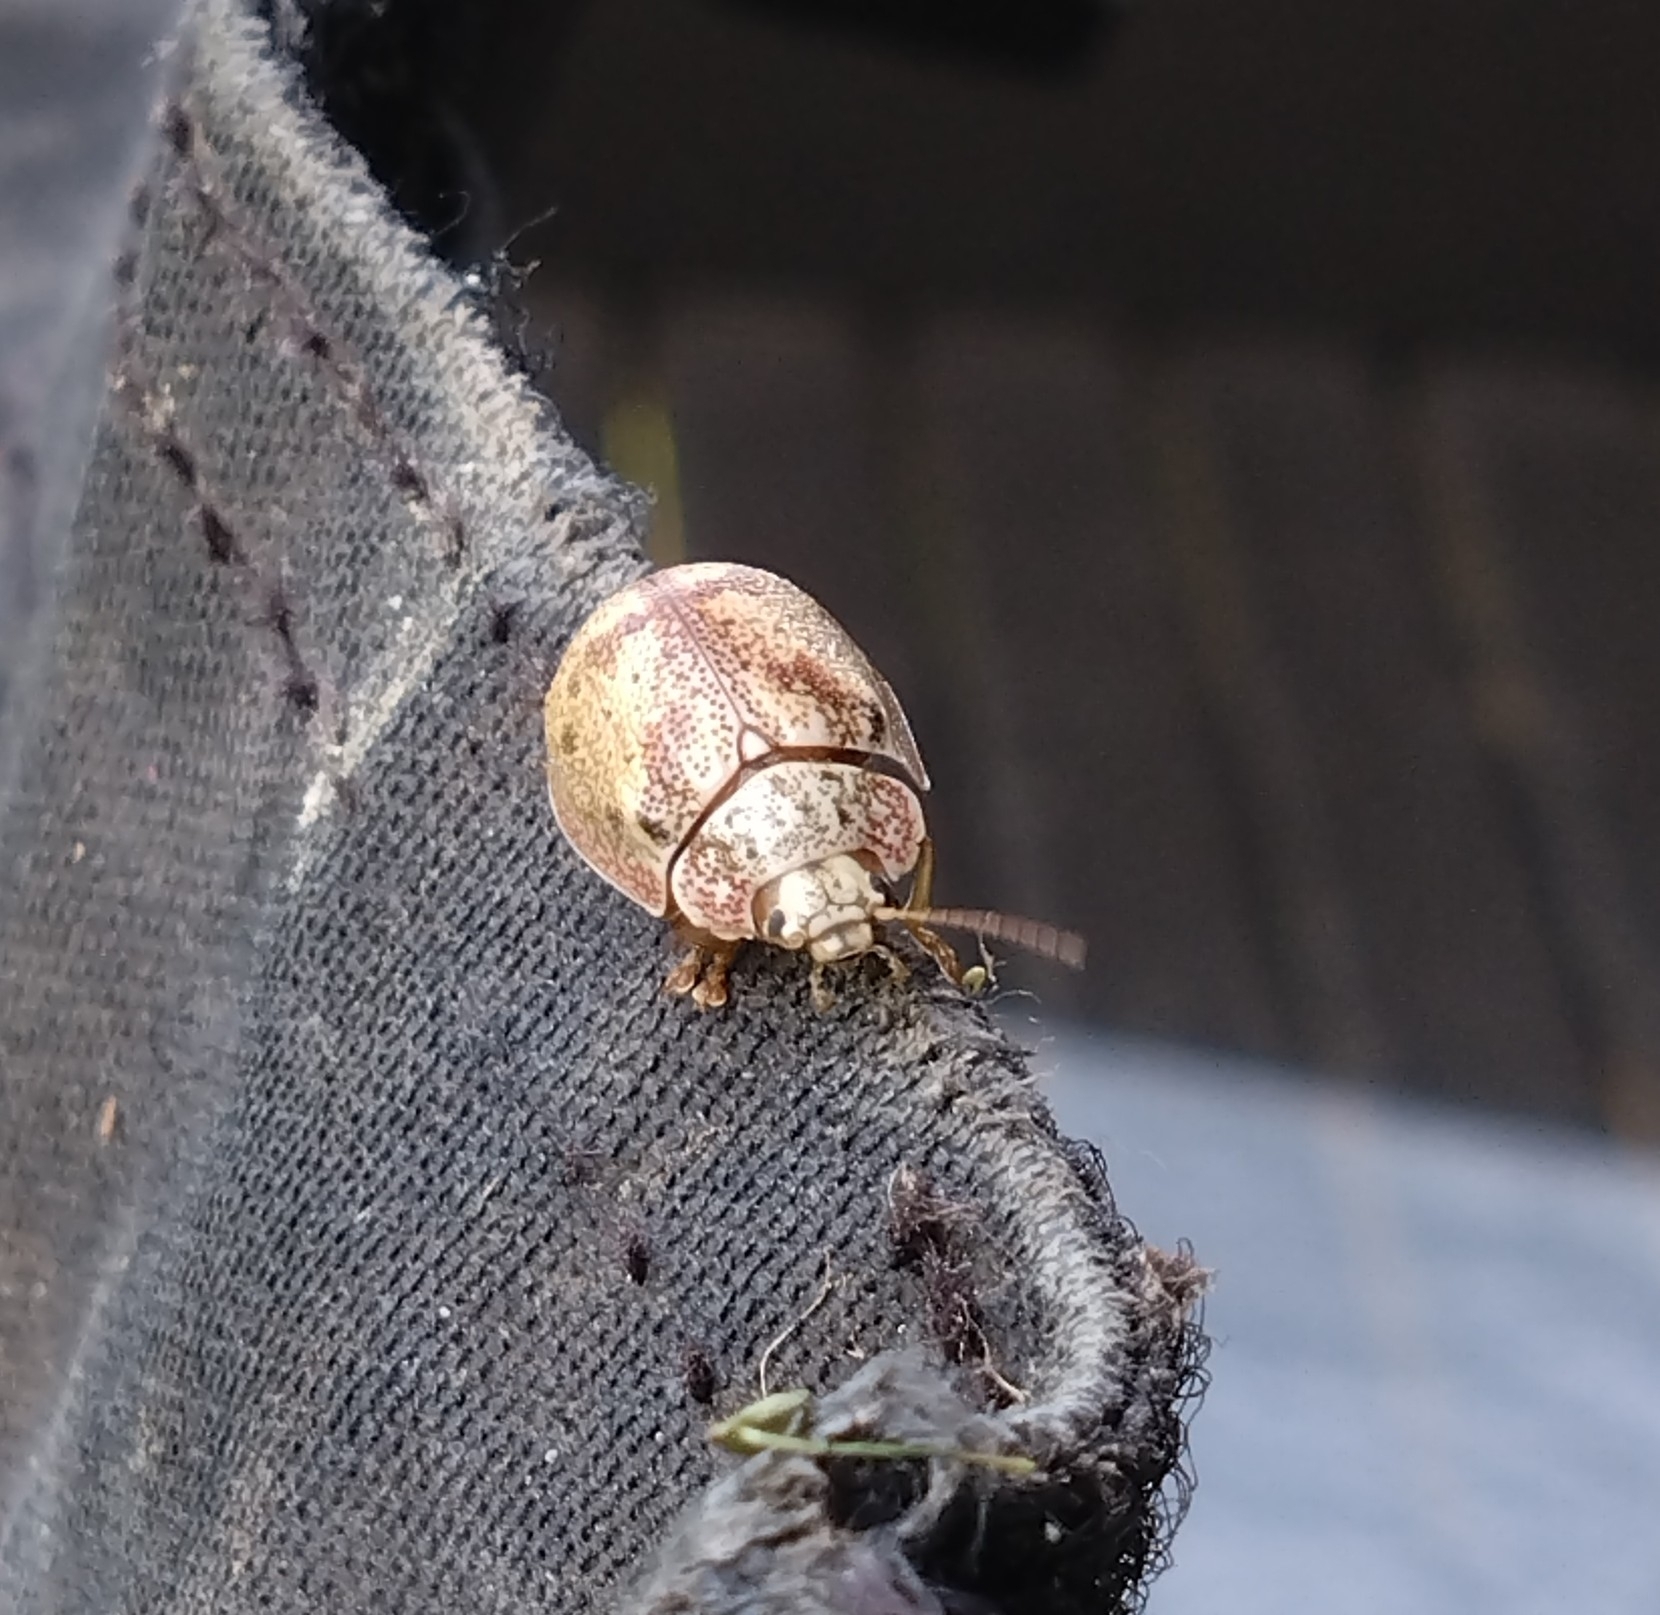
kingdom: Animalia
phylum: Arthropoda
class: Insecta
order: Coleoptera
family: Chrysomelidae
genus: Paropsis
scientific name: Paropsis charybdis
